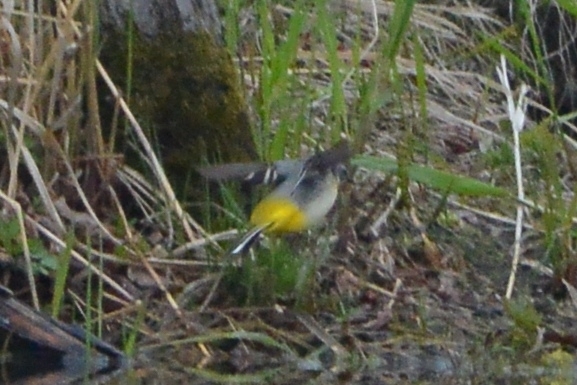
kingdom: Animalia
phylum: Chordata
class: Aves
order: Passeriformes
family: Motacillidae
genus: Motacilla
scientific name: Motacilla cinerea
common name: Grey wagtail
